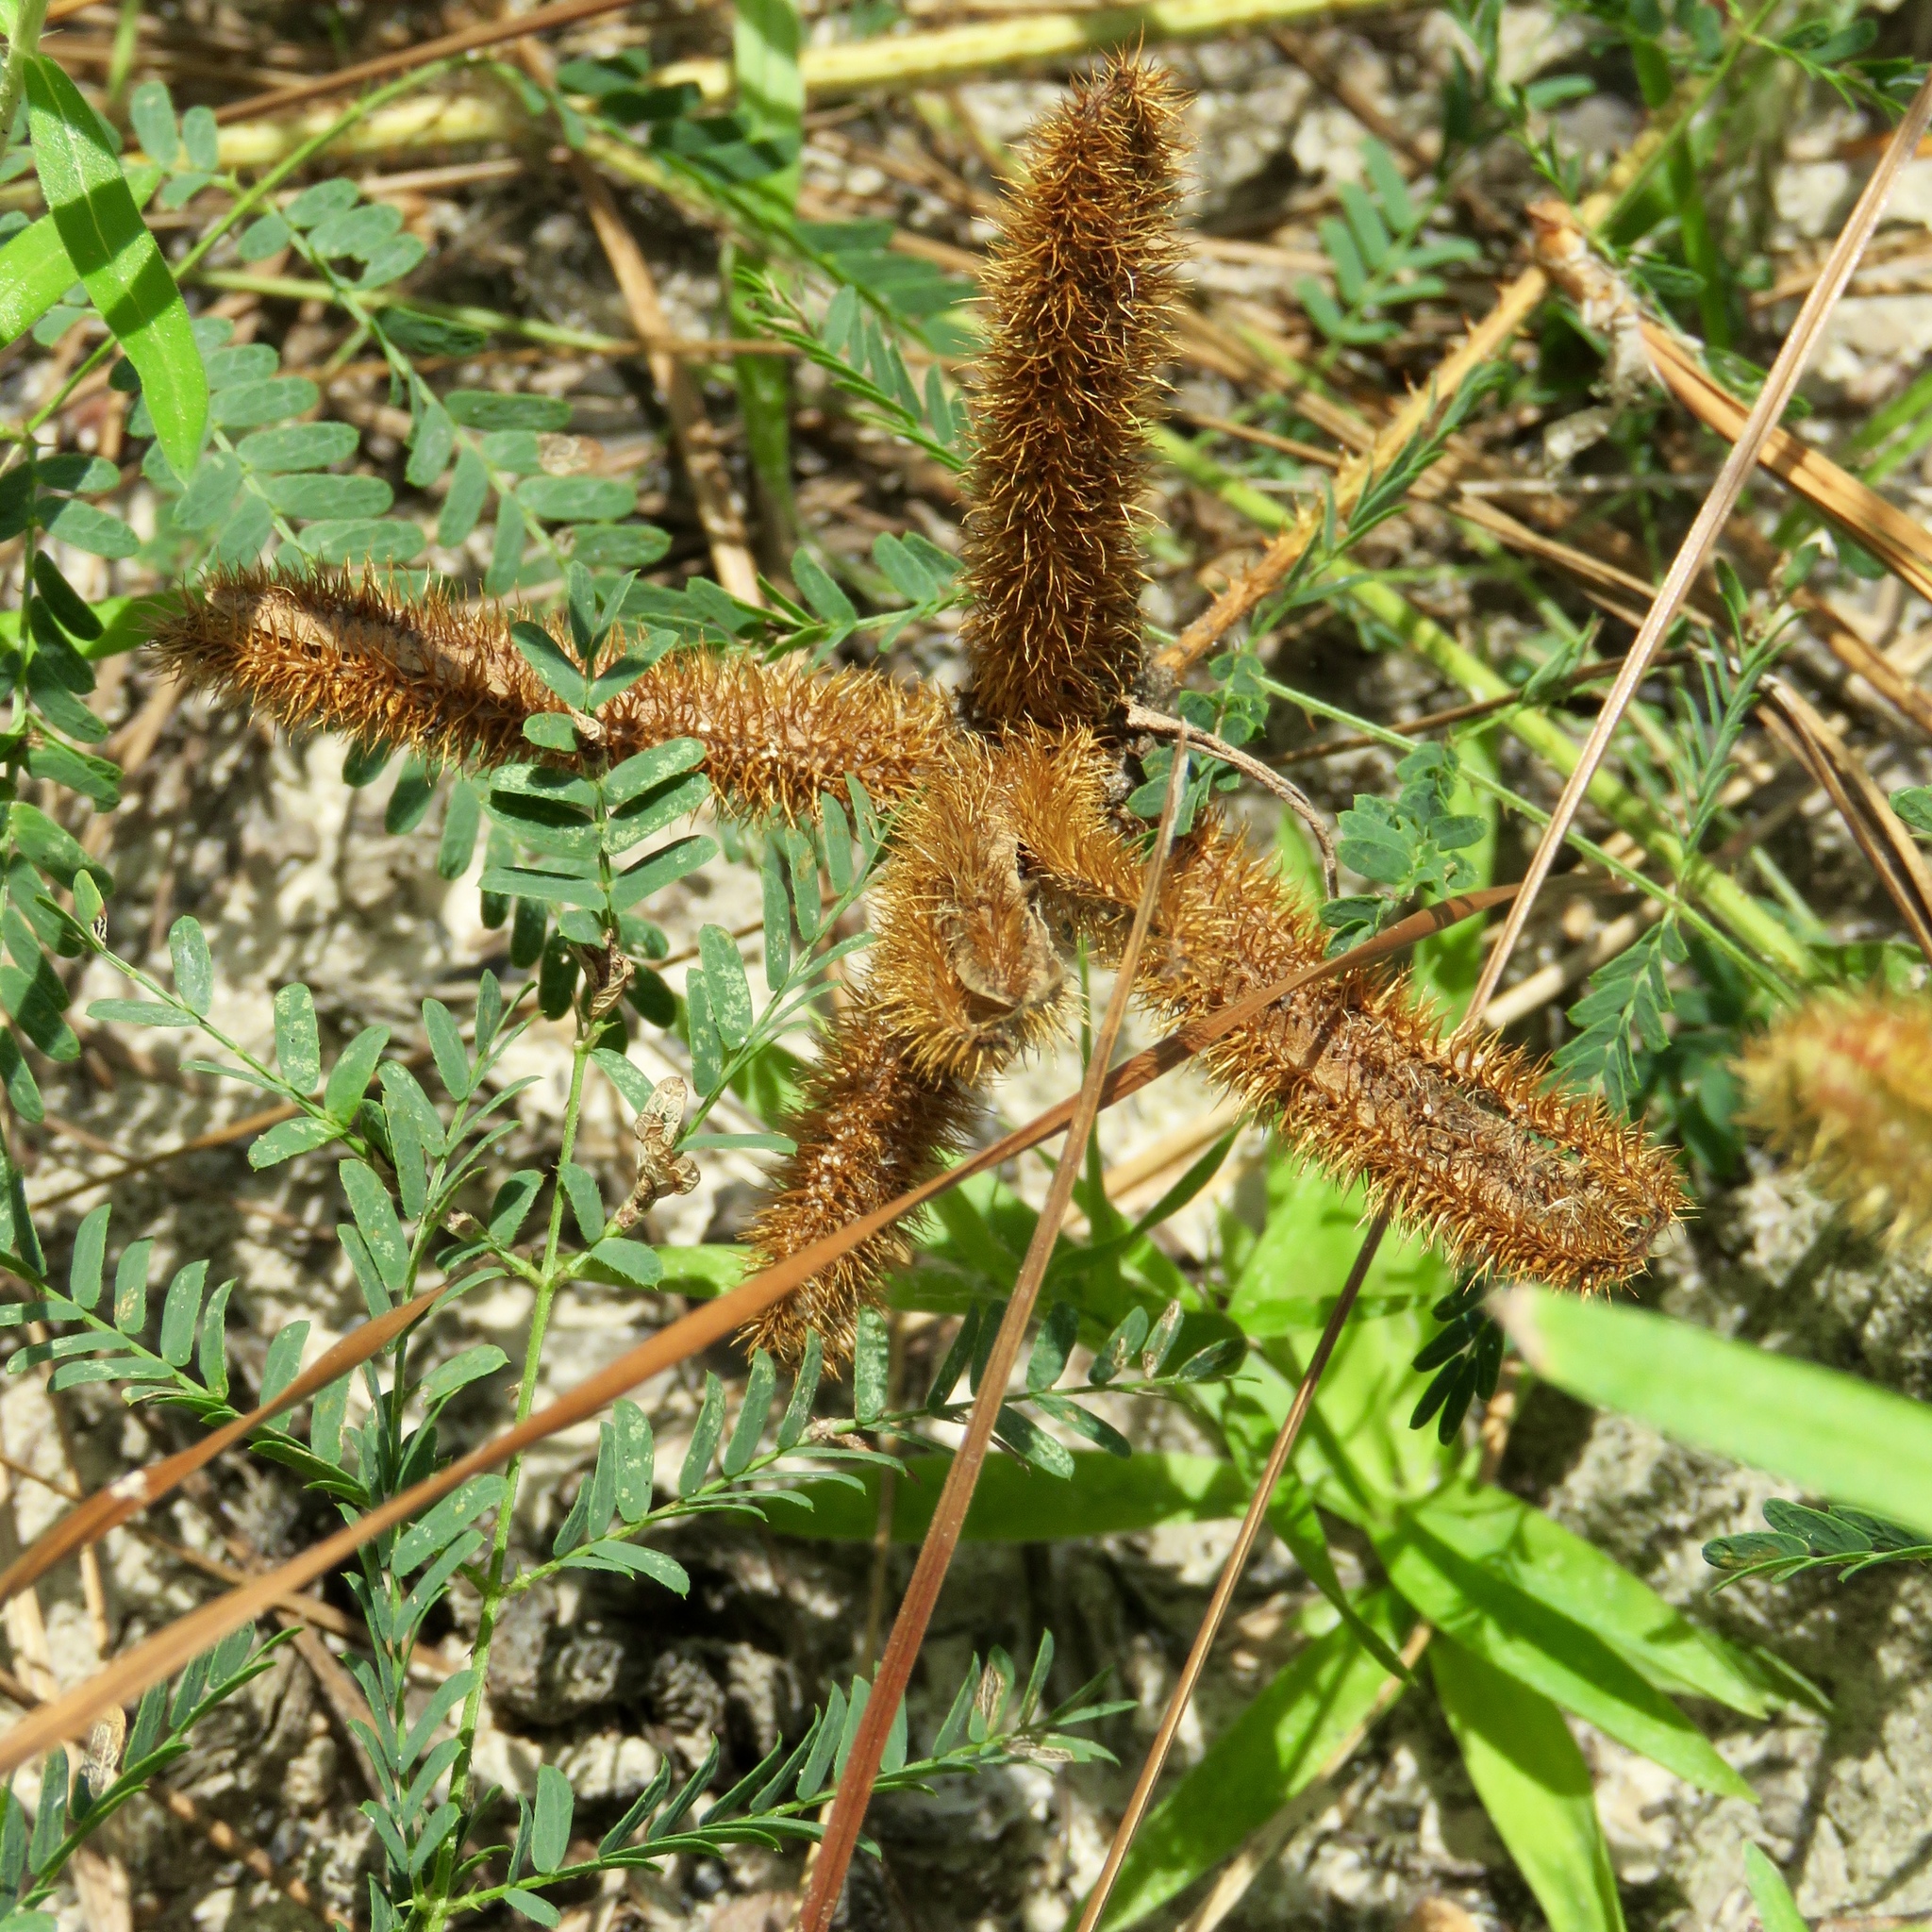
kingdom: Plantae
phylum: Tracheophyta
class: Magnoliopsida
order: Fabales
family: Fabaceae
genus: Mimosa
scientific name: Mimosa hystricina
